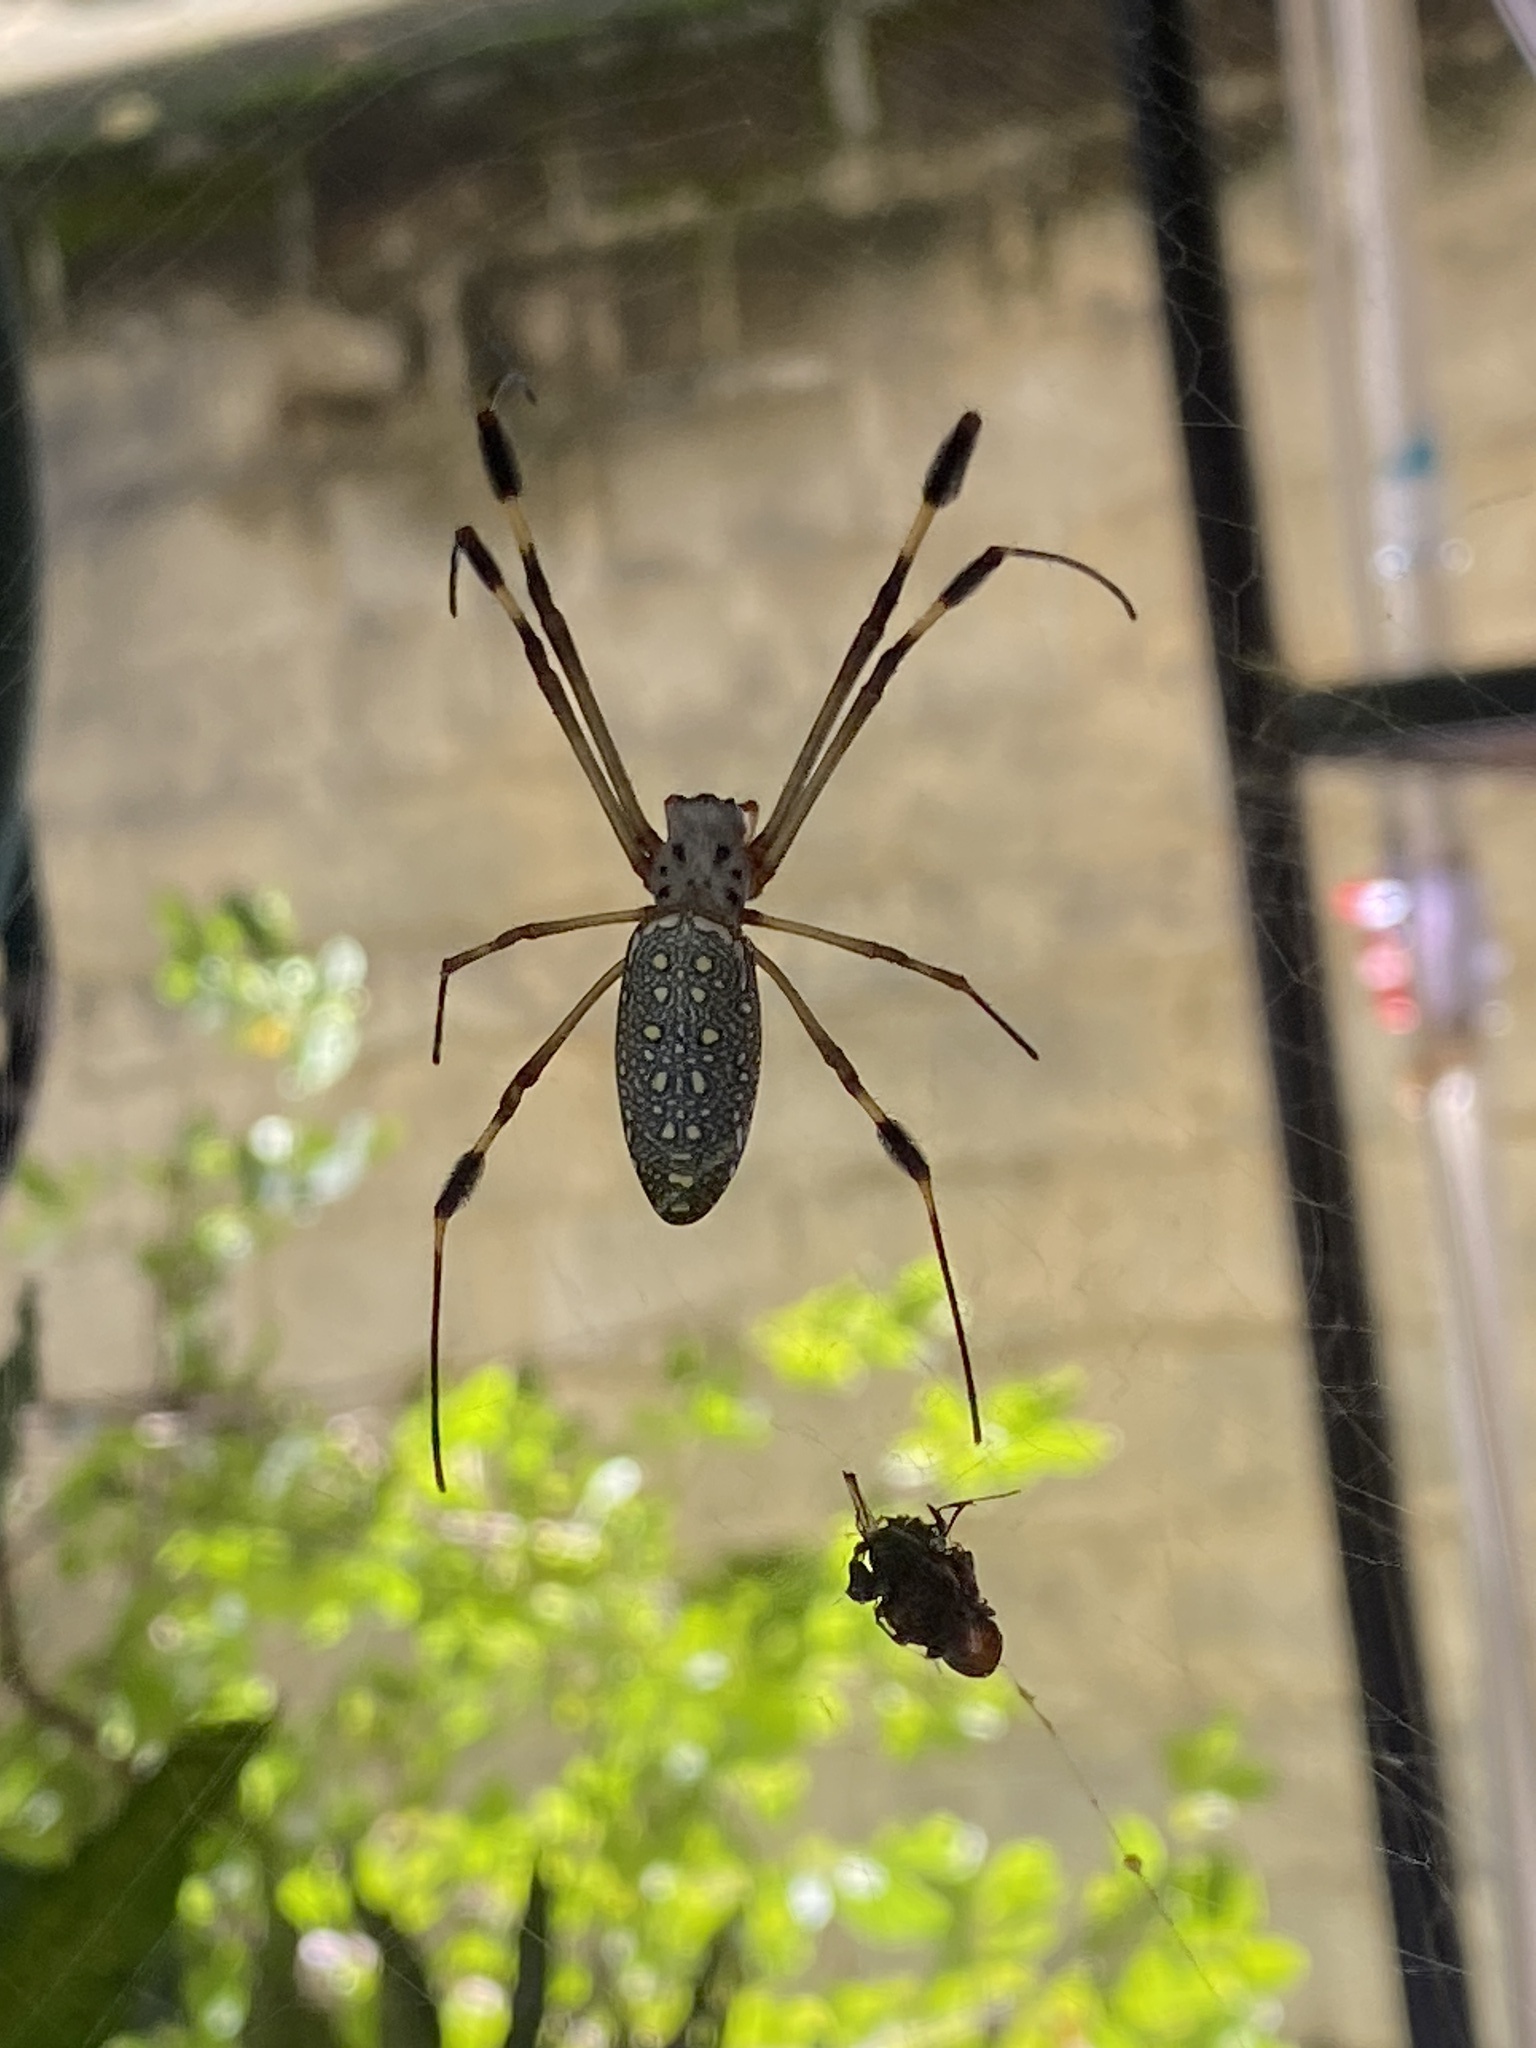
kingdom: Animalia
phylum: Arthropoda
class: Arachnida
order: Araneae
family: Araneidae
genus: Trichonephila
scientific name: Trichonephila clavipes
